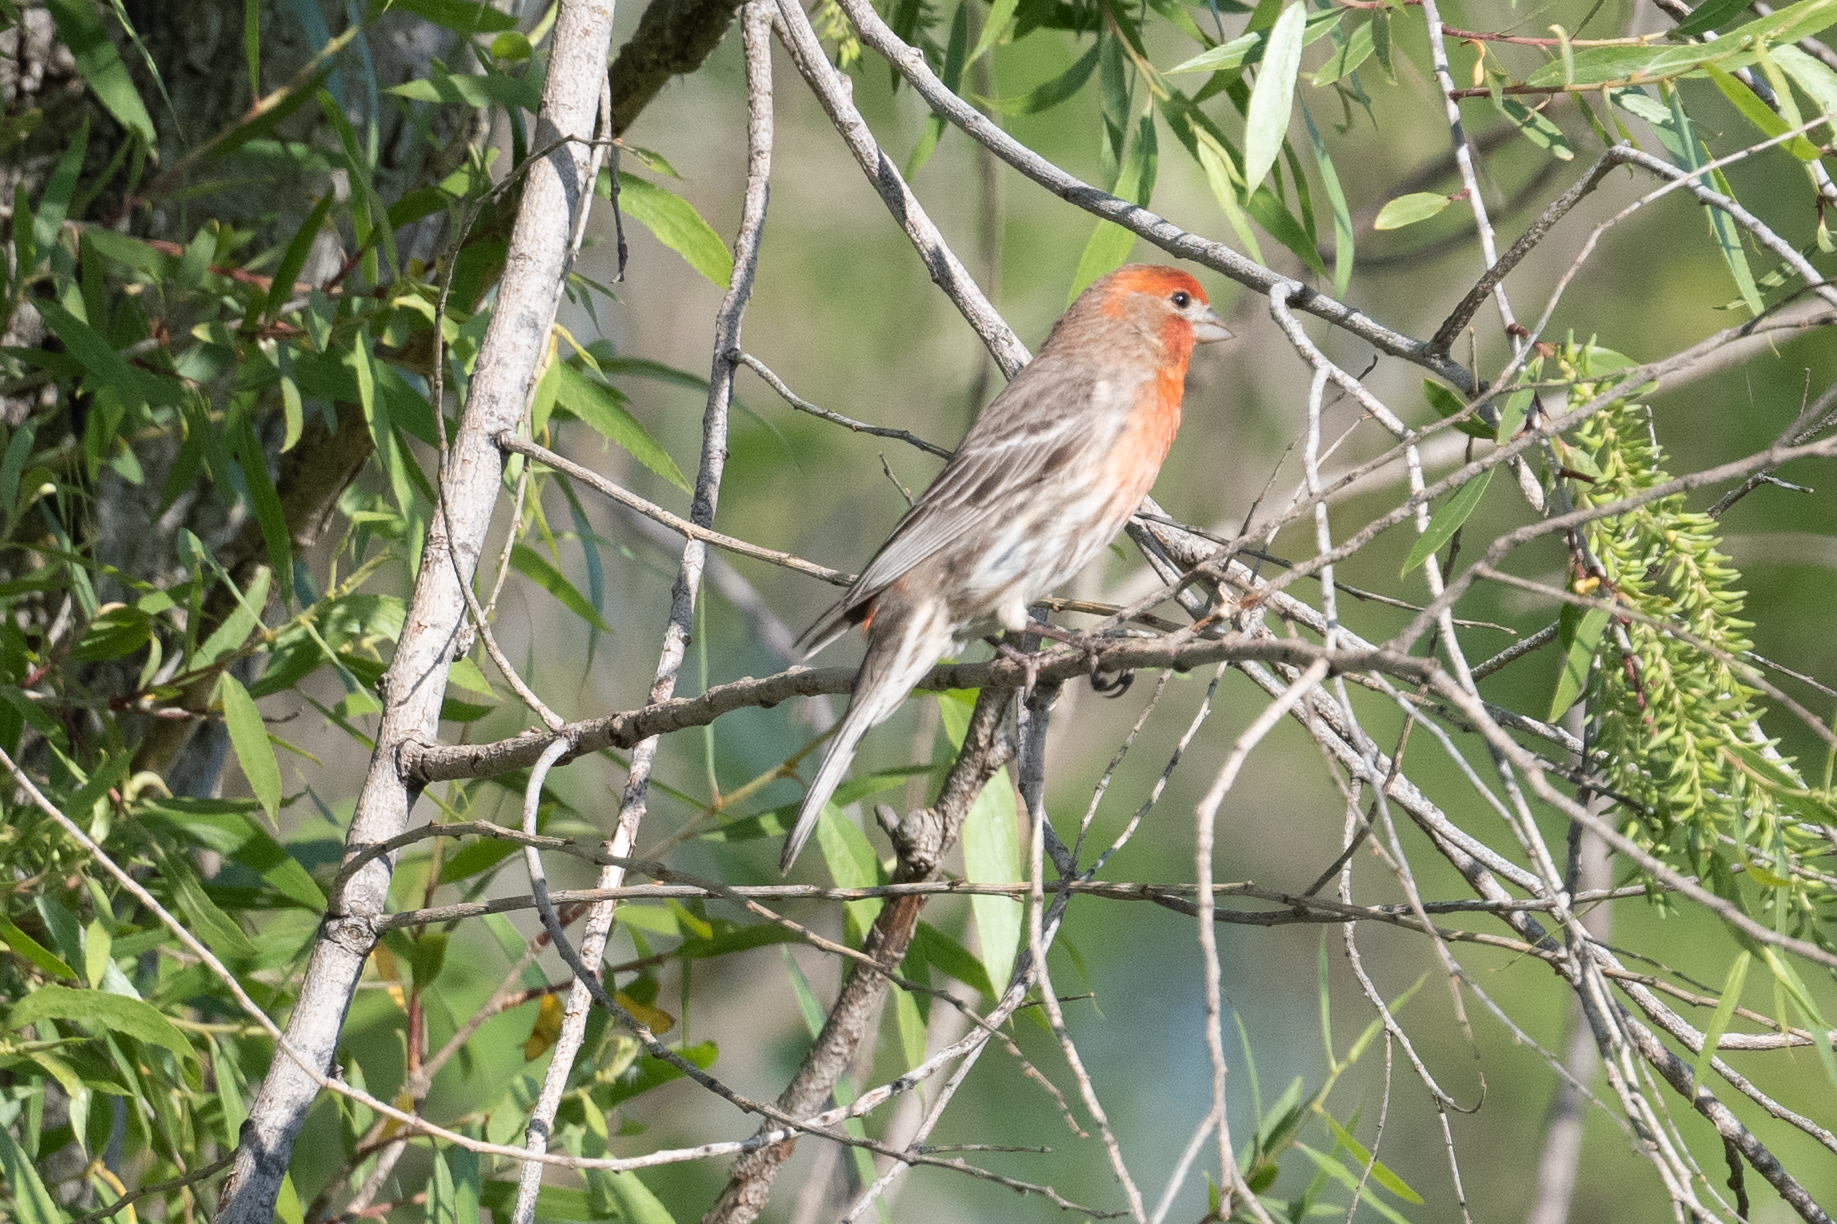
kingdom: Animalia
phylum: Chordata
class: Aves
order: Passeriformes
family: Fringillidae
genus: Haemorhous
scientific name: Haemorhous mexicanus
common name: House finch
